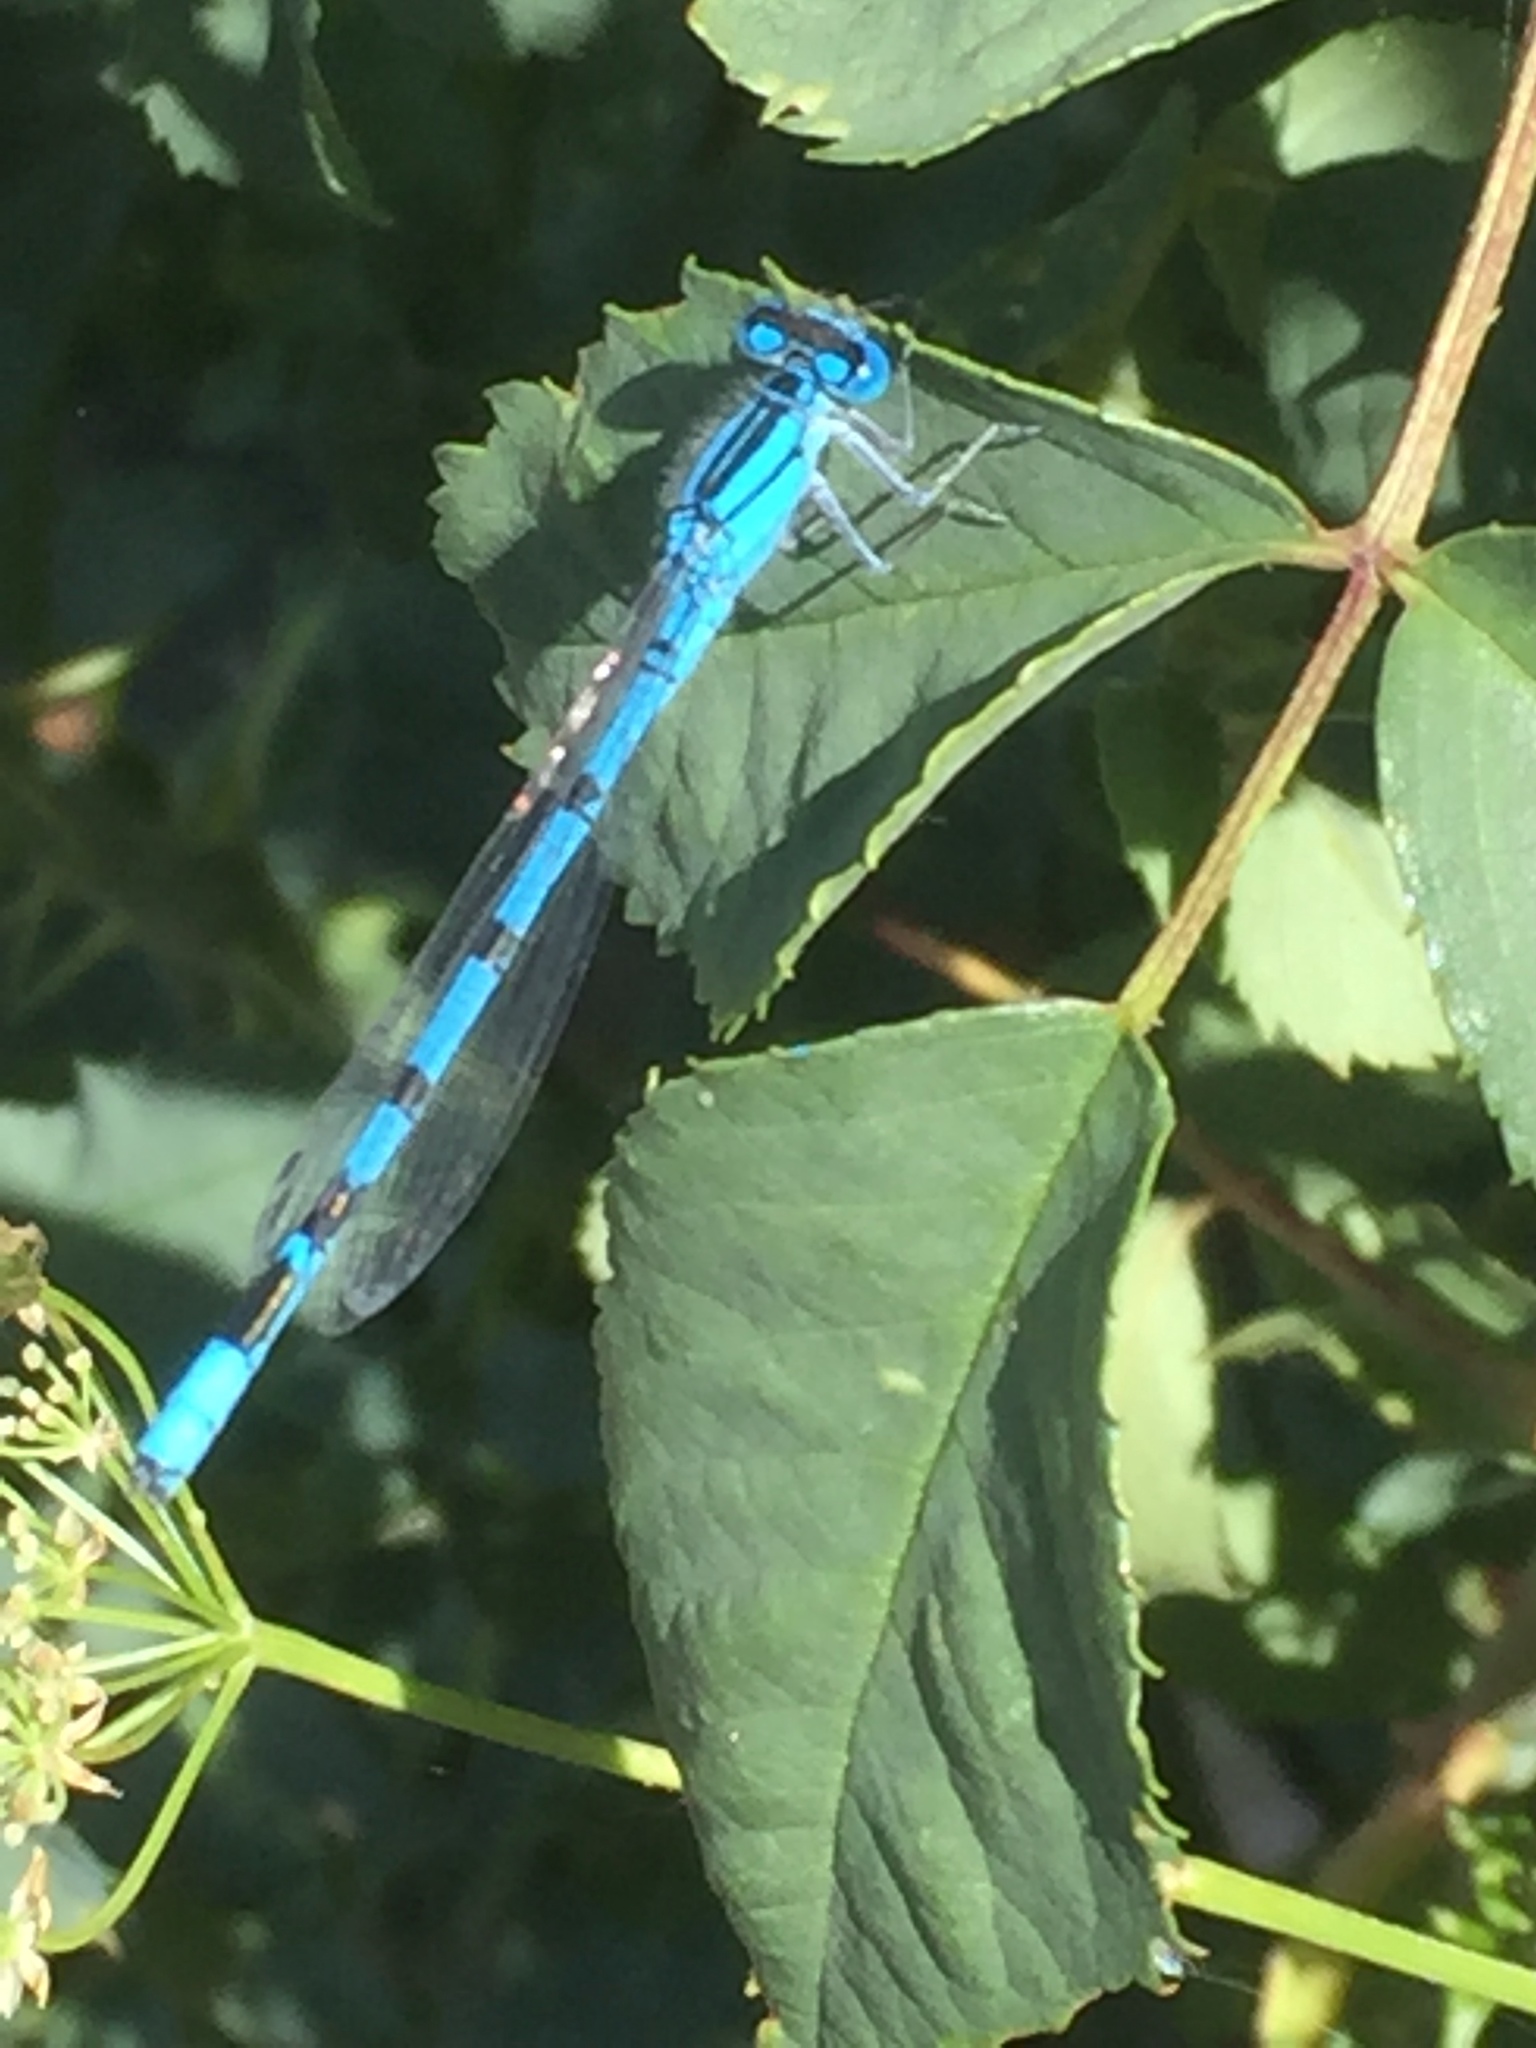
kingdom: Animalia
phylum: Arthropoda
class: Insecta
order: Odonata
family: Coenagrionidae
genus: Enallagma
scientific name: Enallagma cyathigerum
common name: Common blue damselfly
